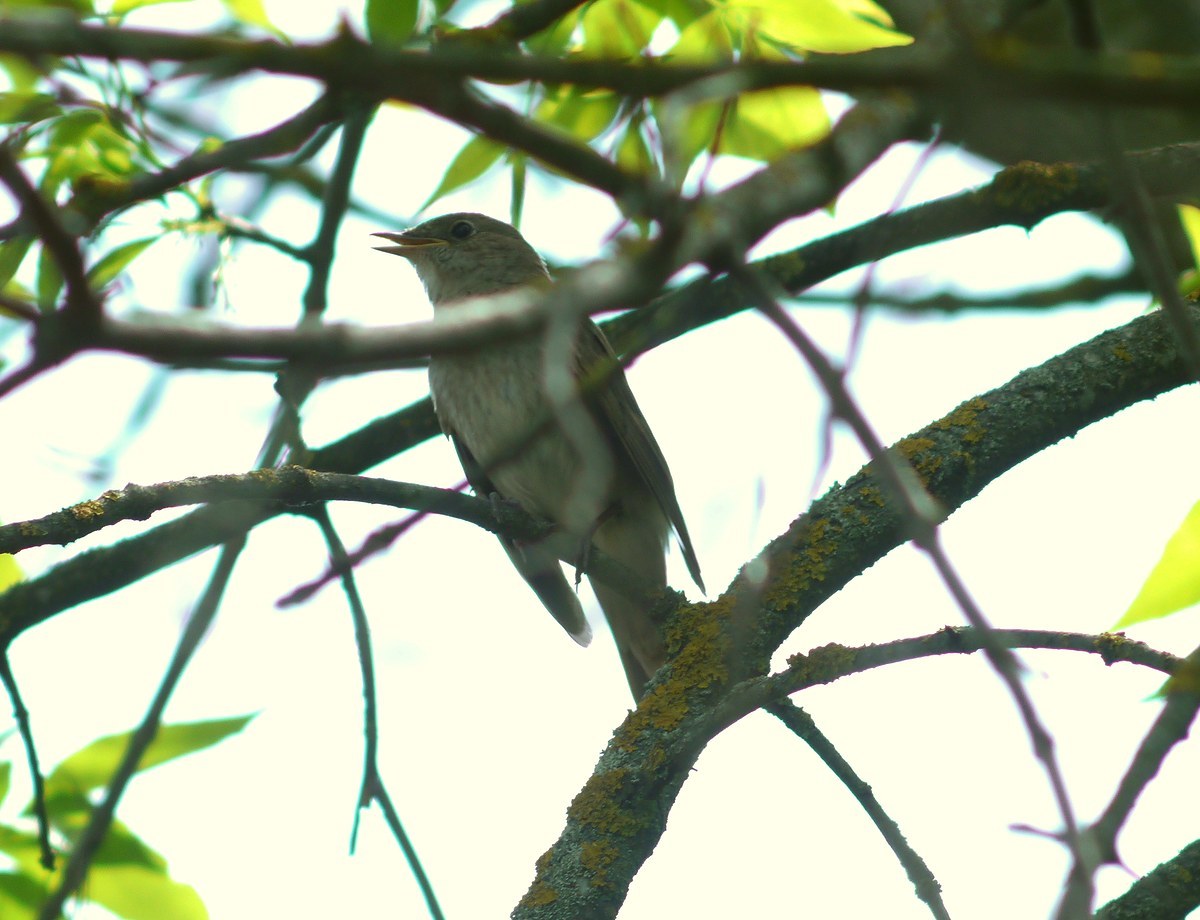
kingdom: Animalia
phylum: Chordata
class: Aves
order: Passeriformes
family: Muscicapidae
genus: Luscinia
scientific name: Luscinia luscinia
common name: Thrush nightingale
